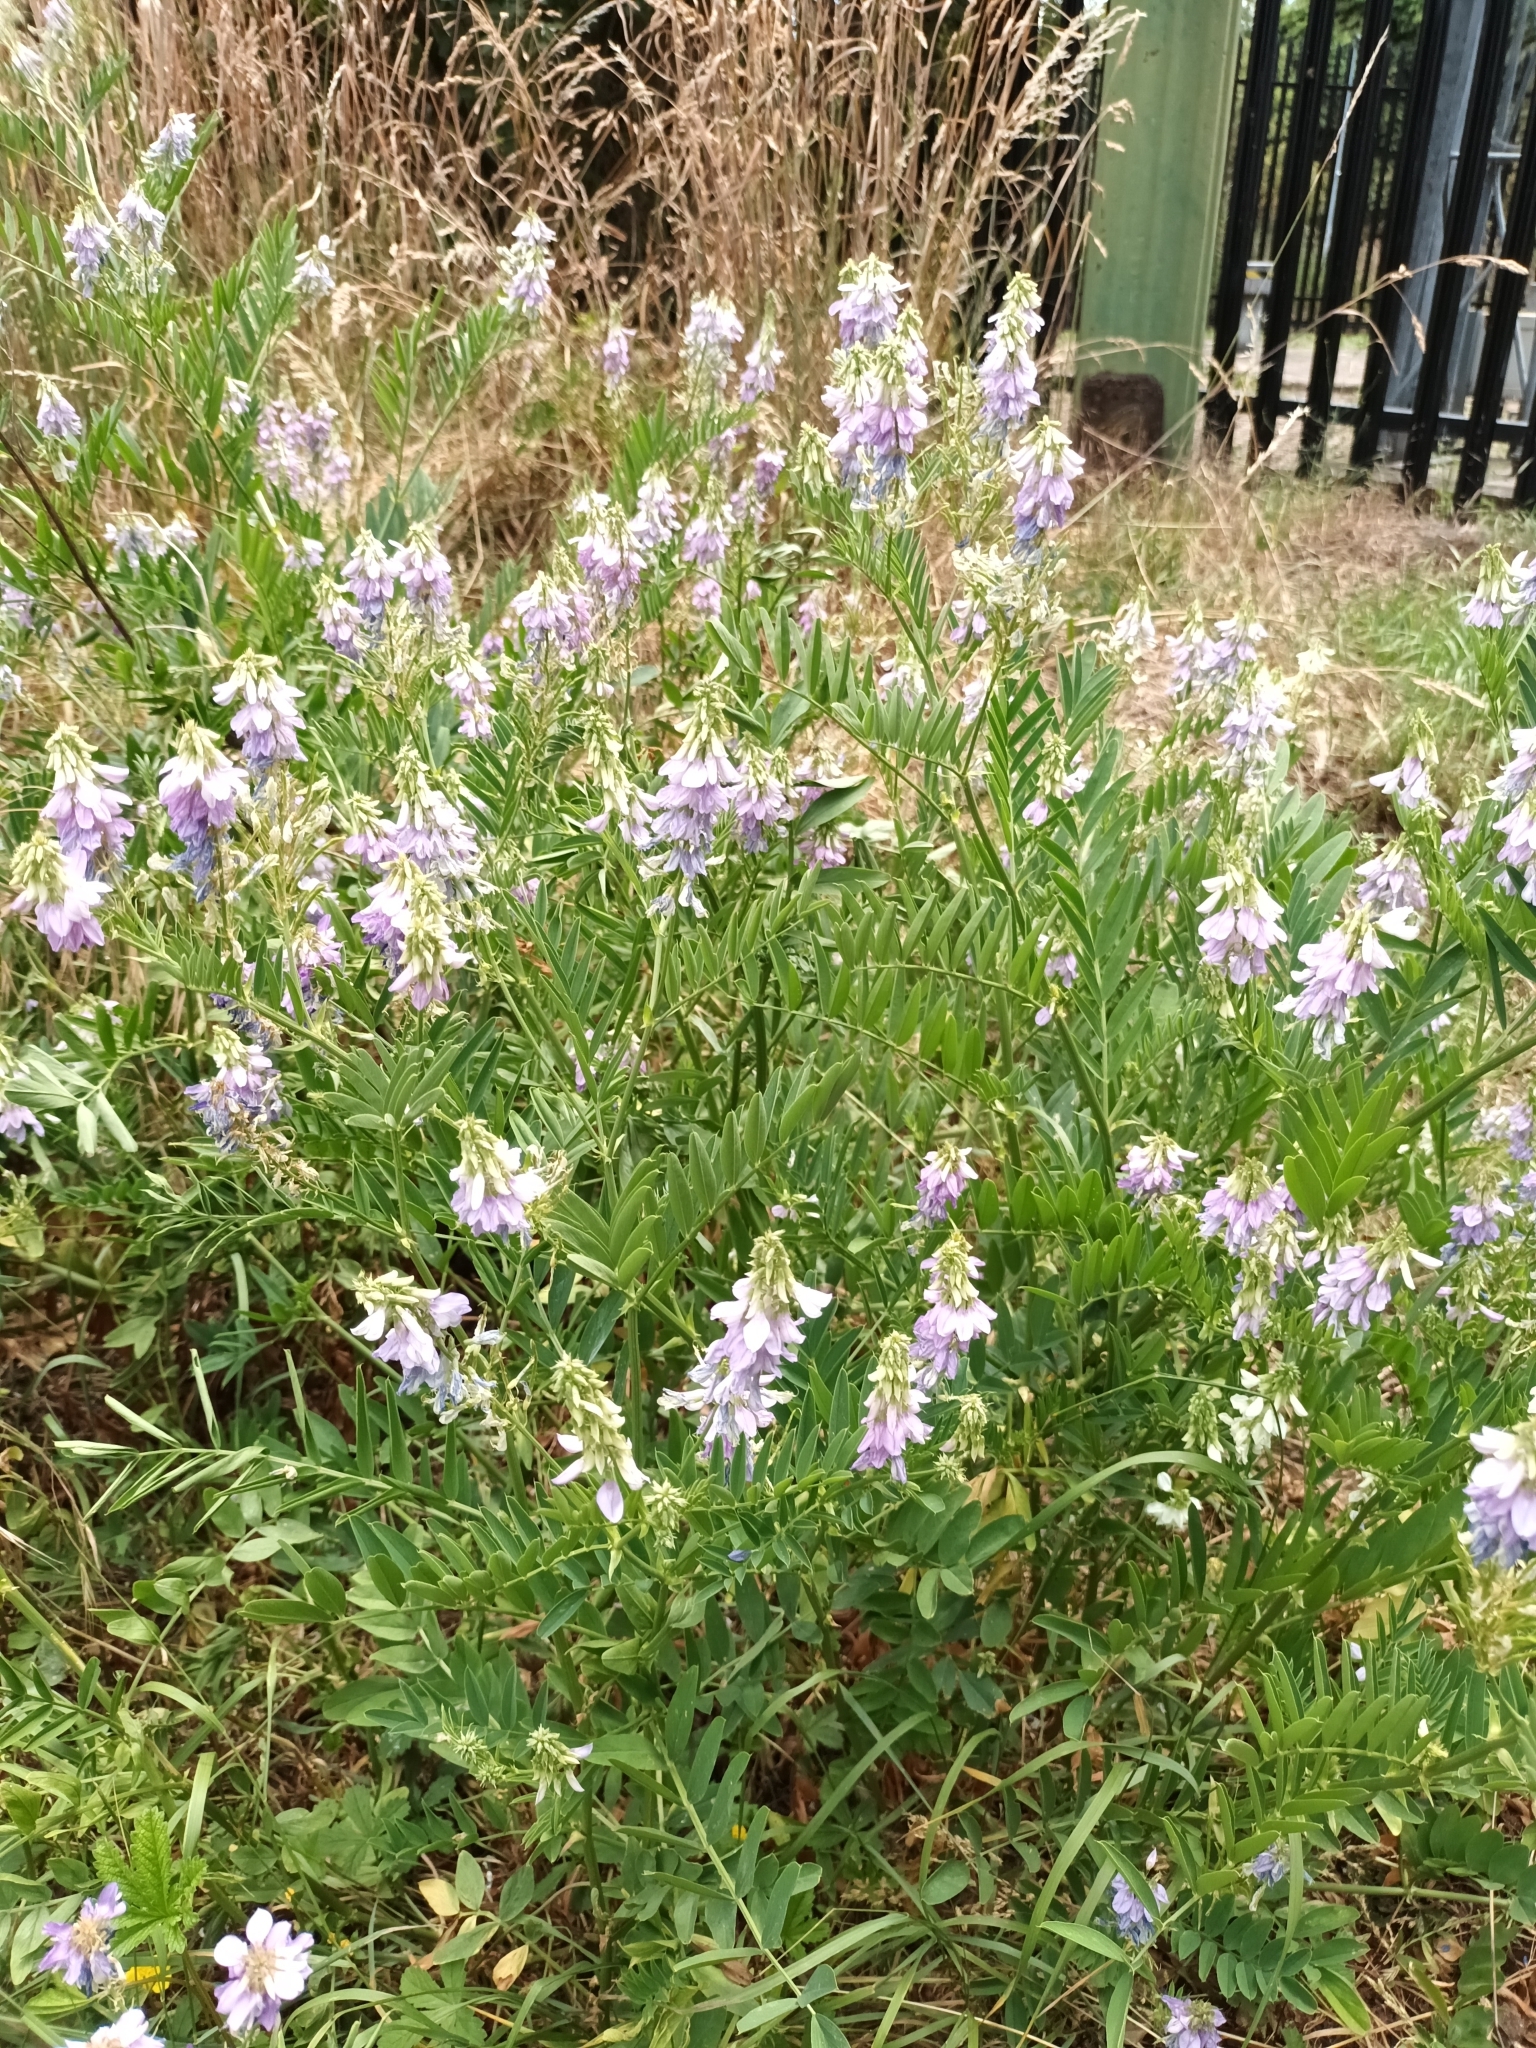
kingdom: Plantae
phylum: Tracheophyta
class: Magnoliopsida
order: Fabales
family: Fabaceae
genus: Galega
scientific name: Galega officinalis
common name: Goat's-rue
